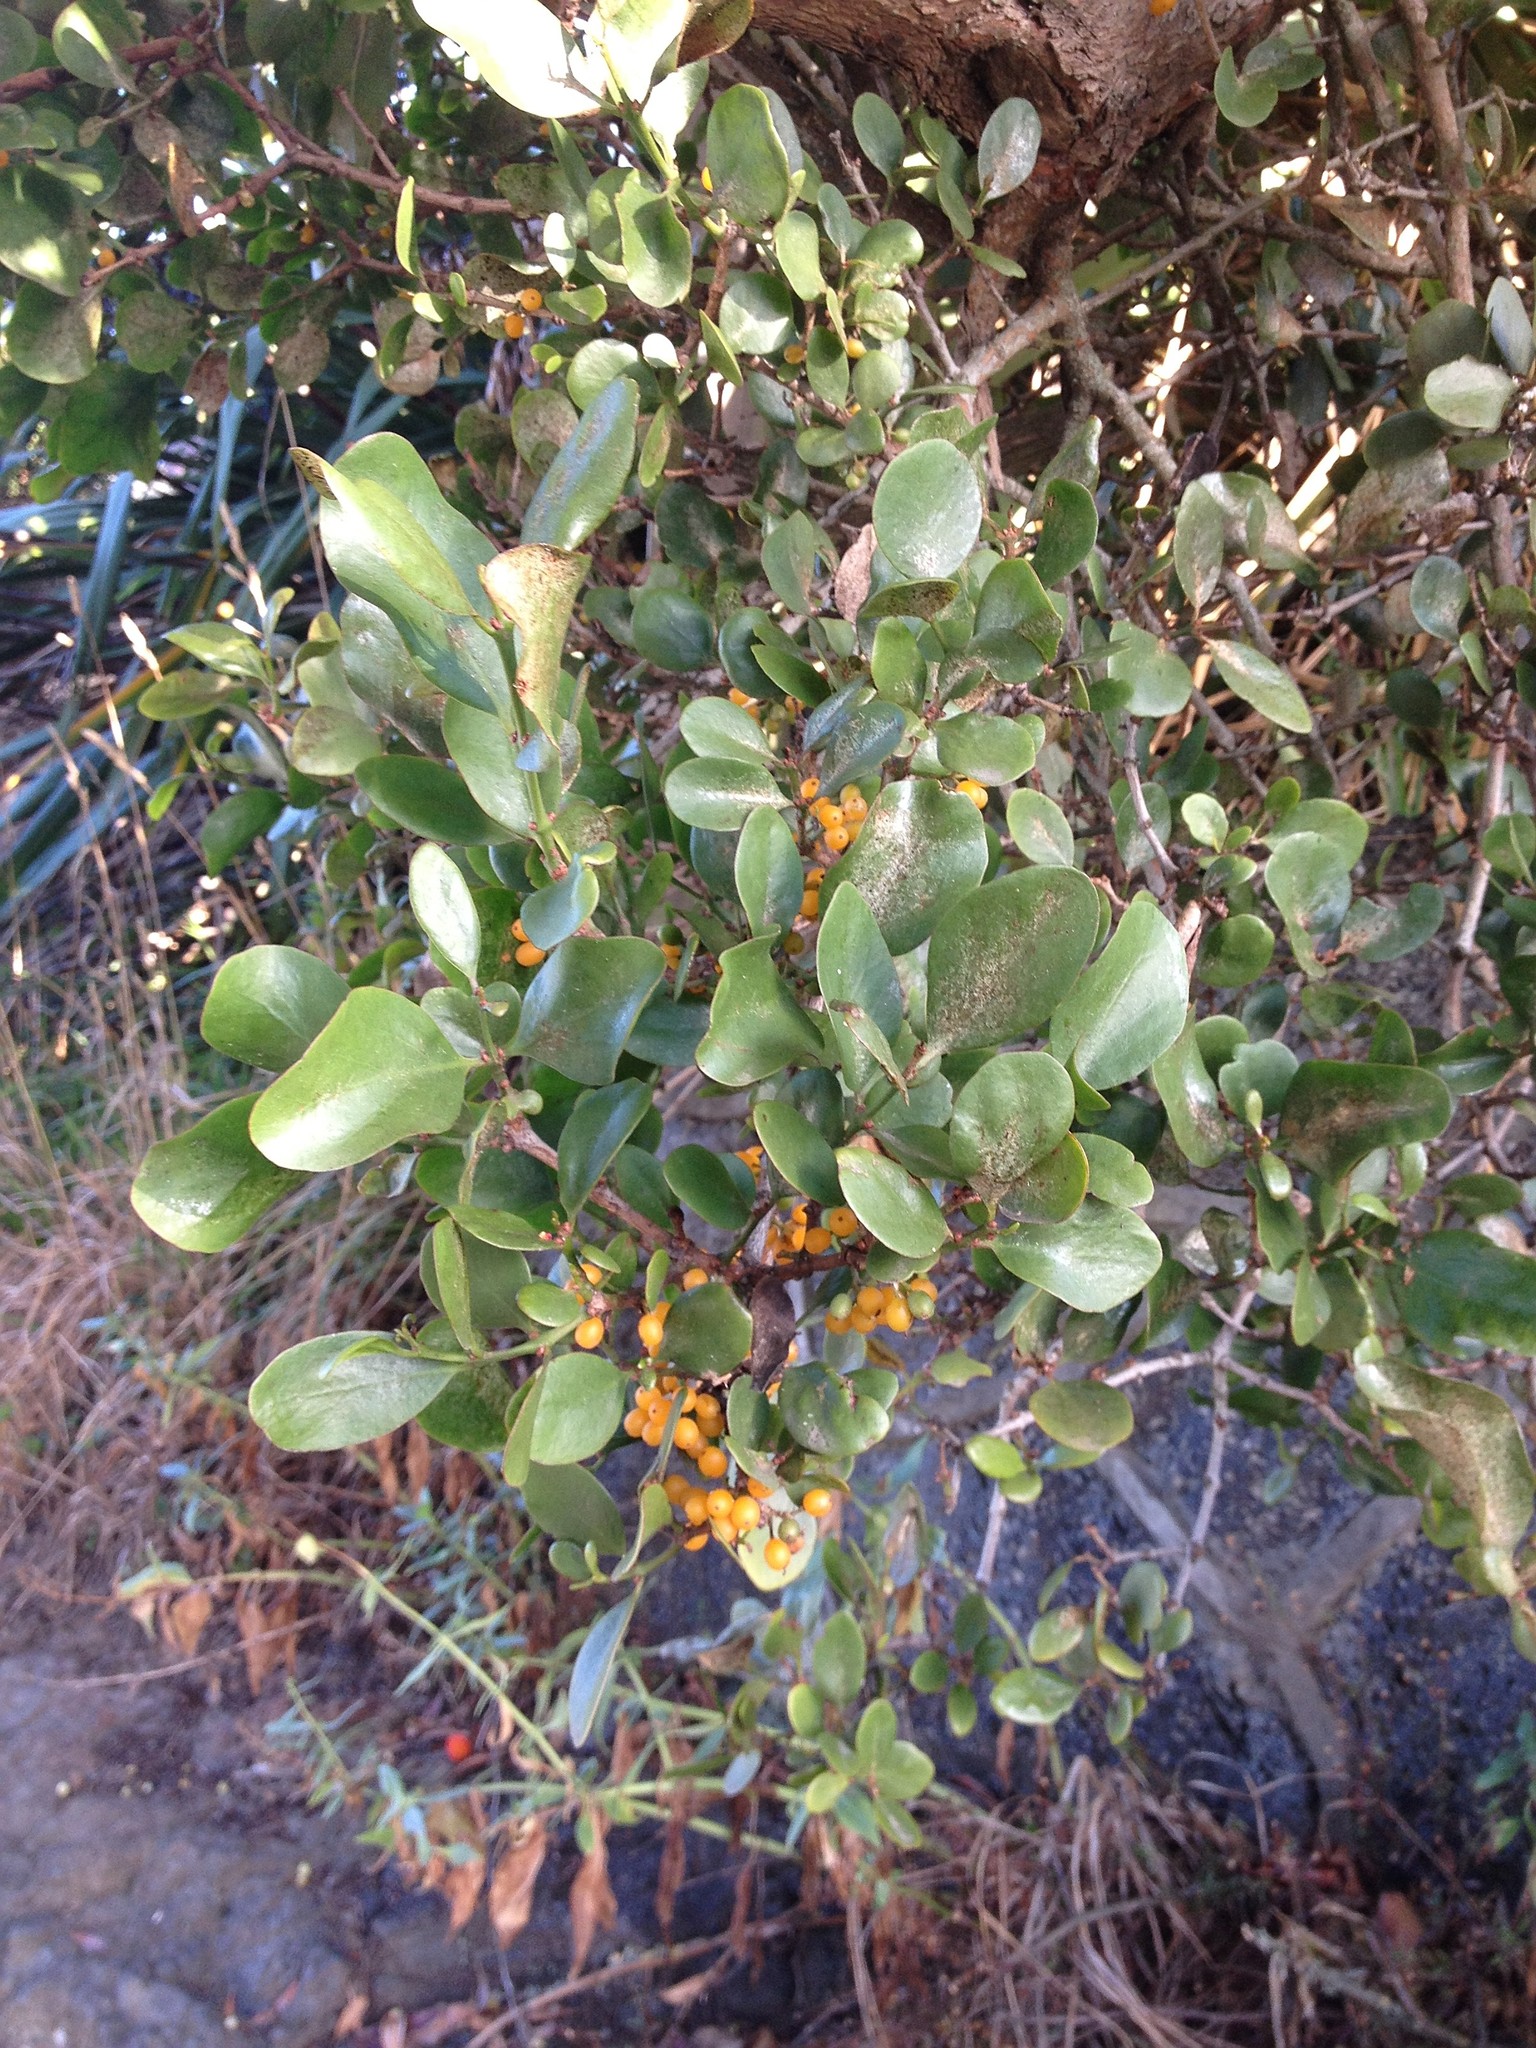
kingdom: Plantae
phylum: Tracheophyta
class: Magnoliopsida
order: Santalales
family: Loranthaceae
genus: Ileostylus
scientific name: Ileostylus micranthus
